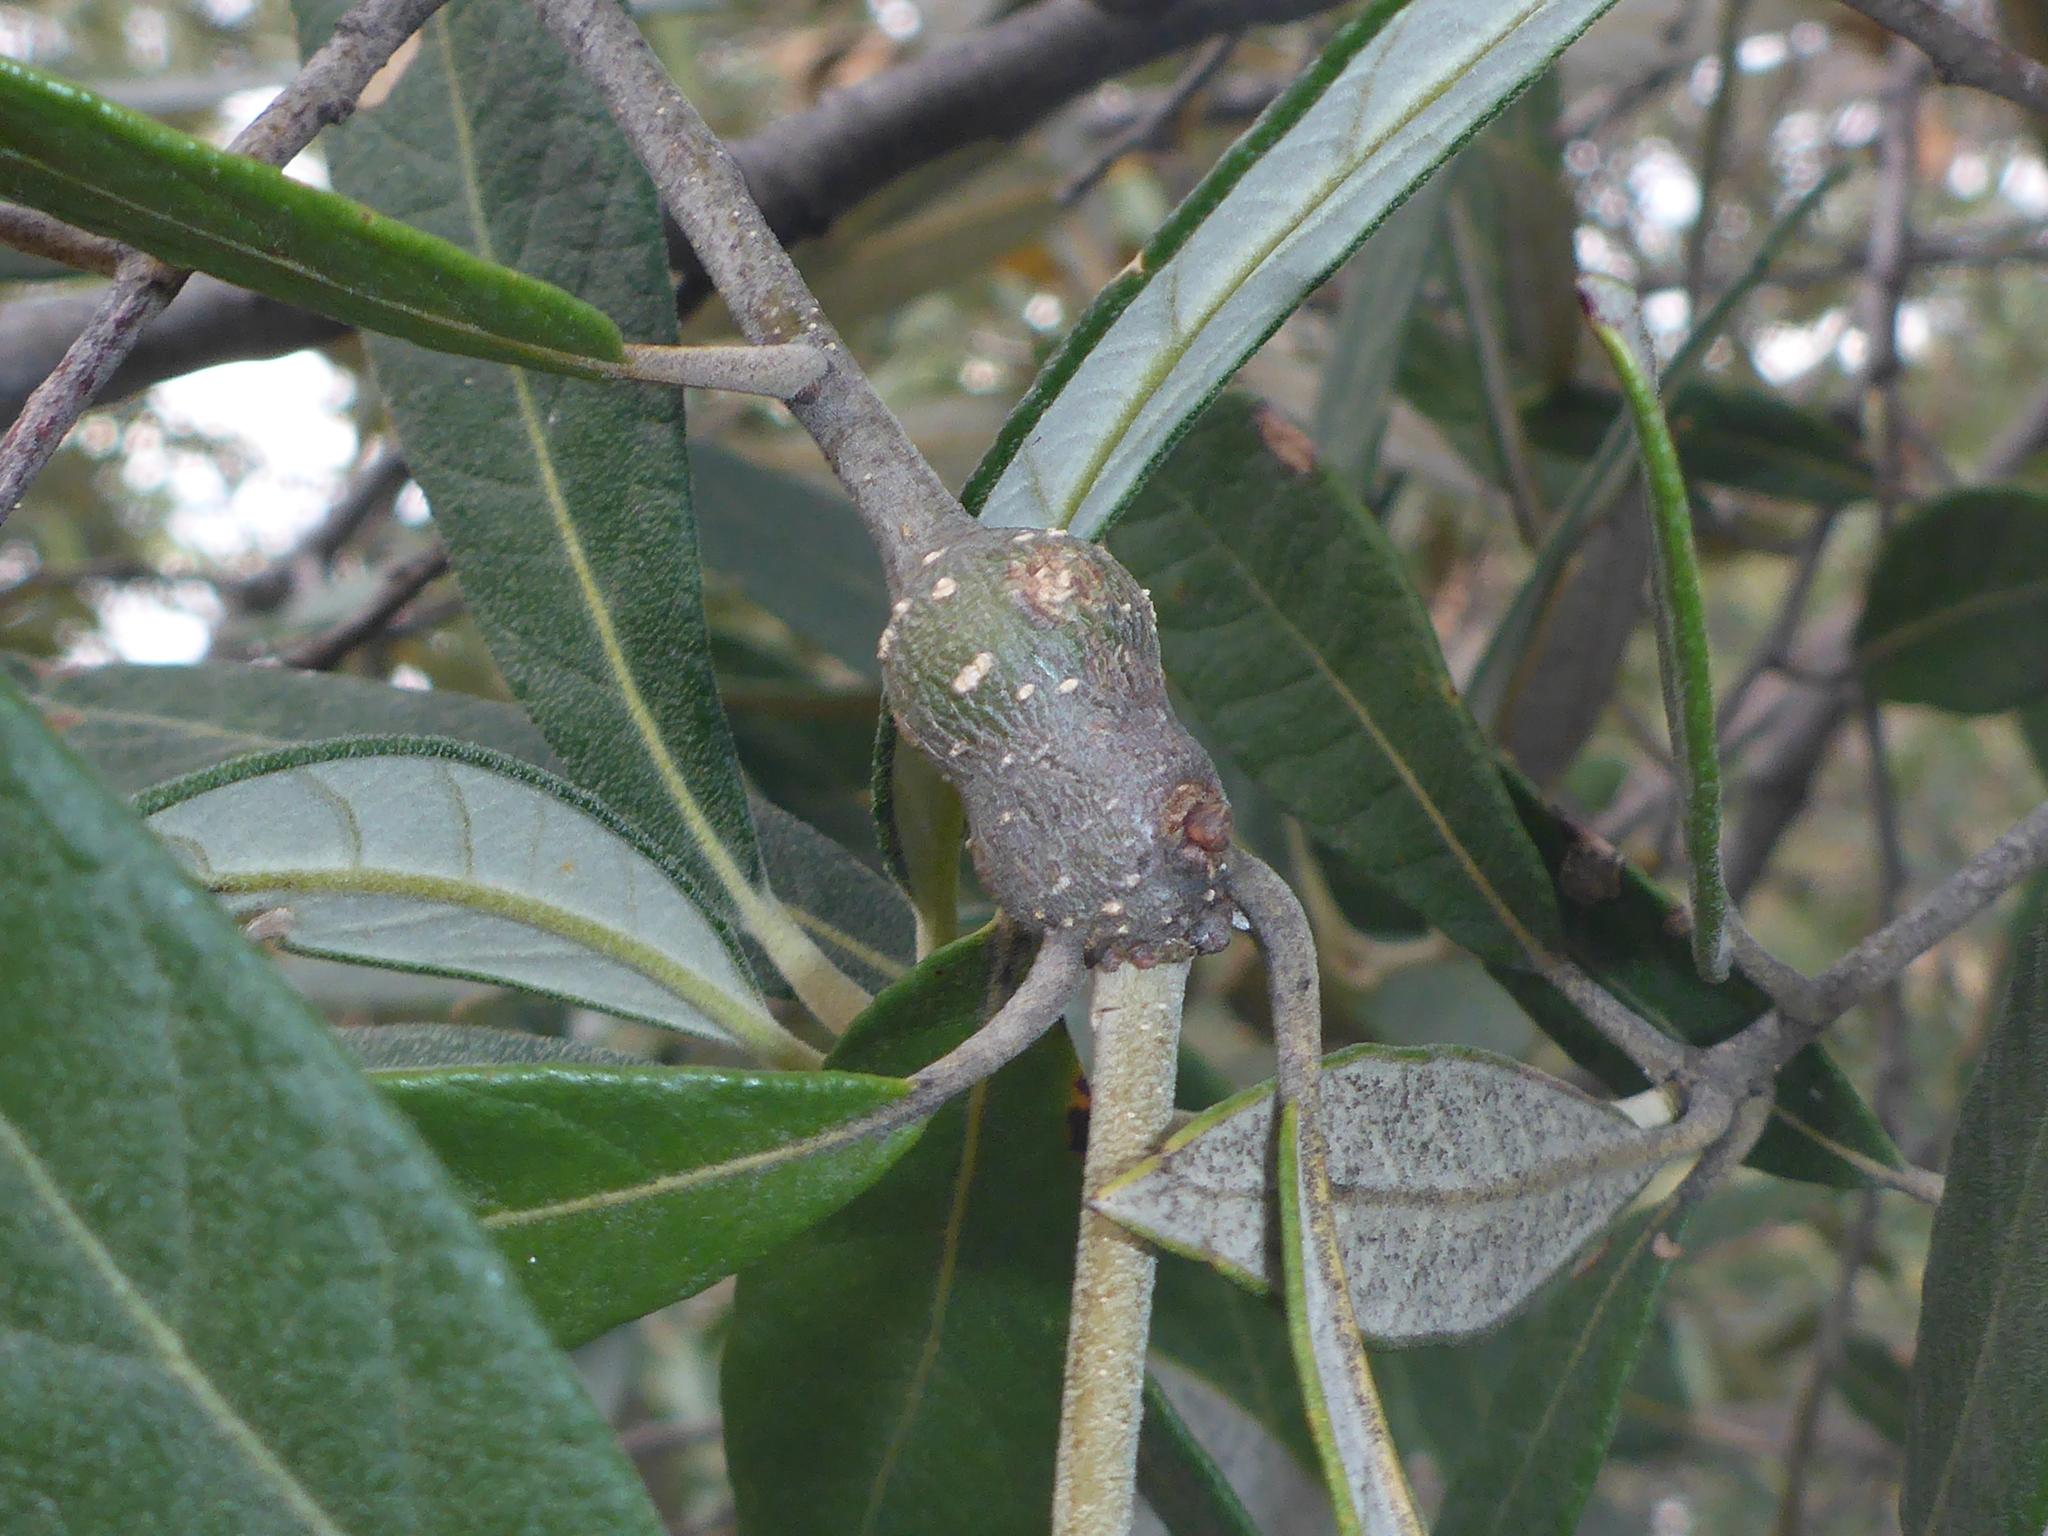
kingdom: Animalia
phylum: Arthropoda
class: Insecta
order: Hymenoptera
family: Cynipidae
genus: Kokkocynips
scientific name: Kokkocynips coxii
